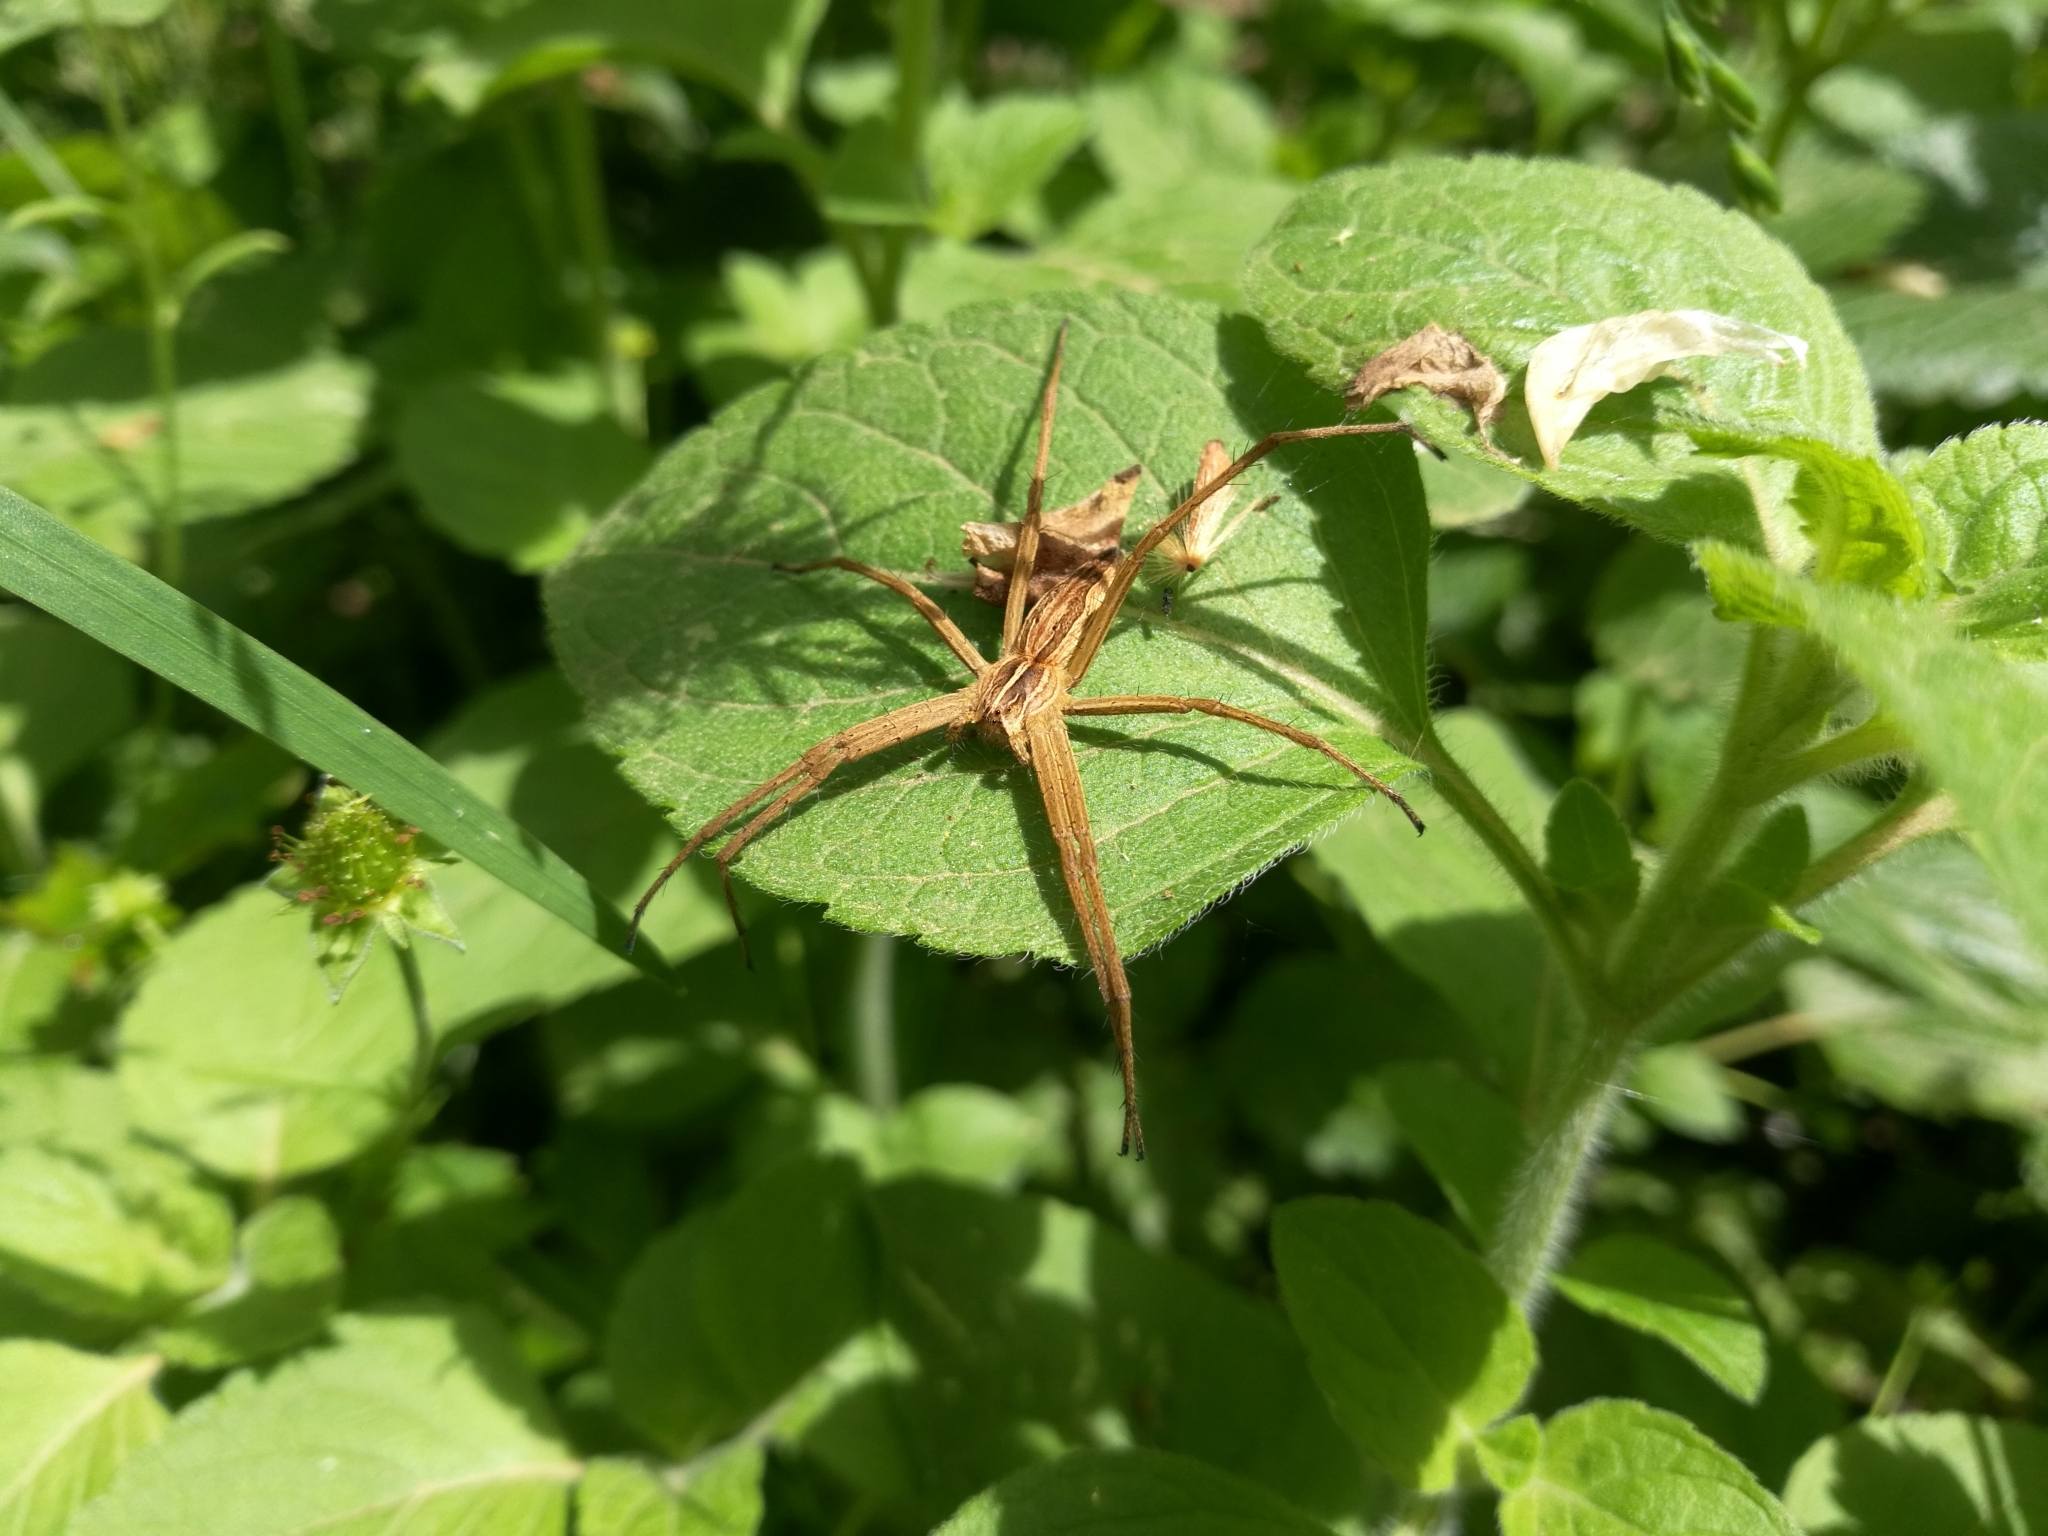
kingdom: Animalia
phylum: Arthropoda
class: Arachnida
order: Araneae
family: Pisauridae
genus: Pisaura
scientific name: Pisaura mirabilis
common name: Tent spider
